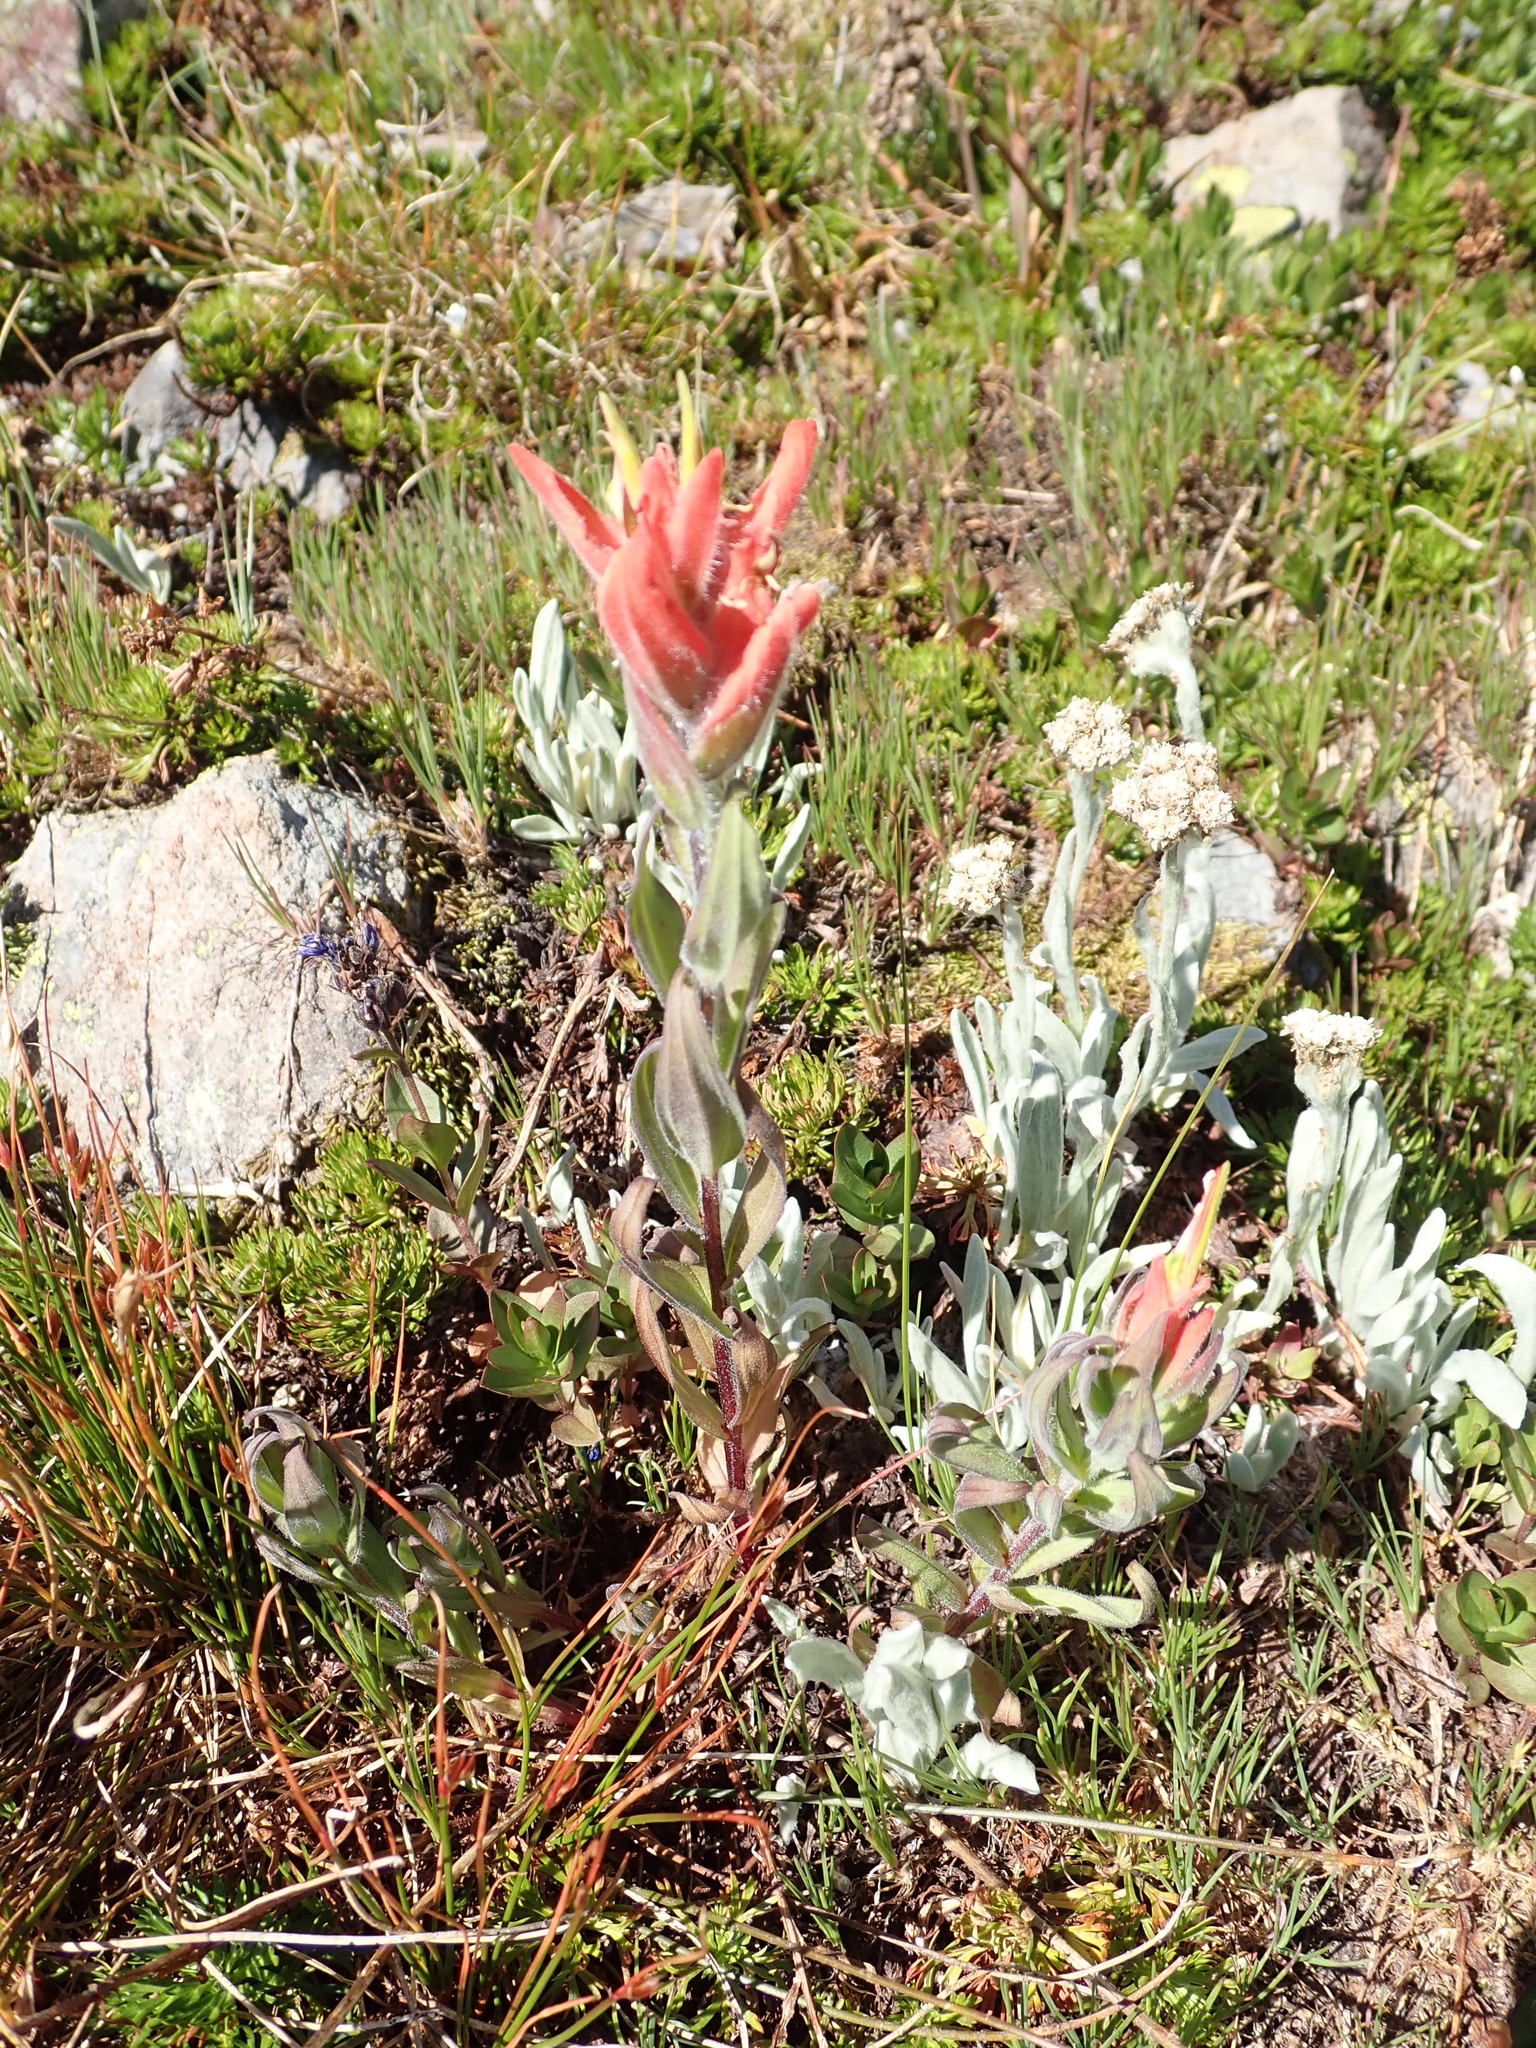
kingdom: Plantae
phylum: Tracheophyta
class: Magnoliopsida
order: Lamiales
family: Orobanchaceae
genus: Castilleja
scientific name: Castilleja elmeri
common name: Elmer's paintbrush
